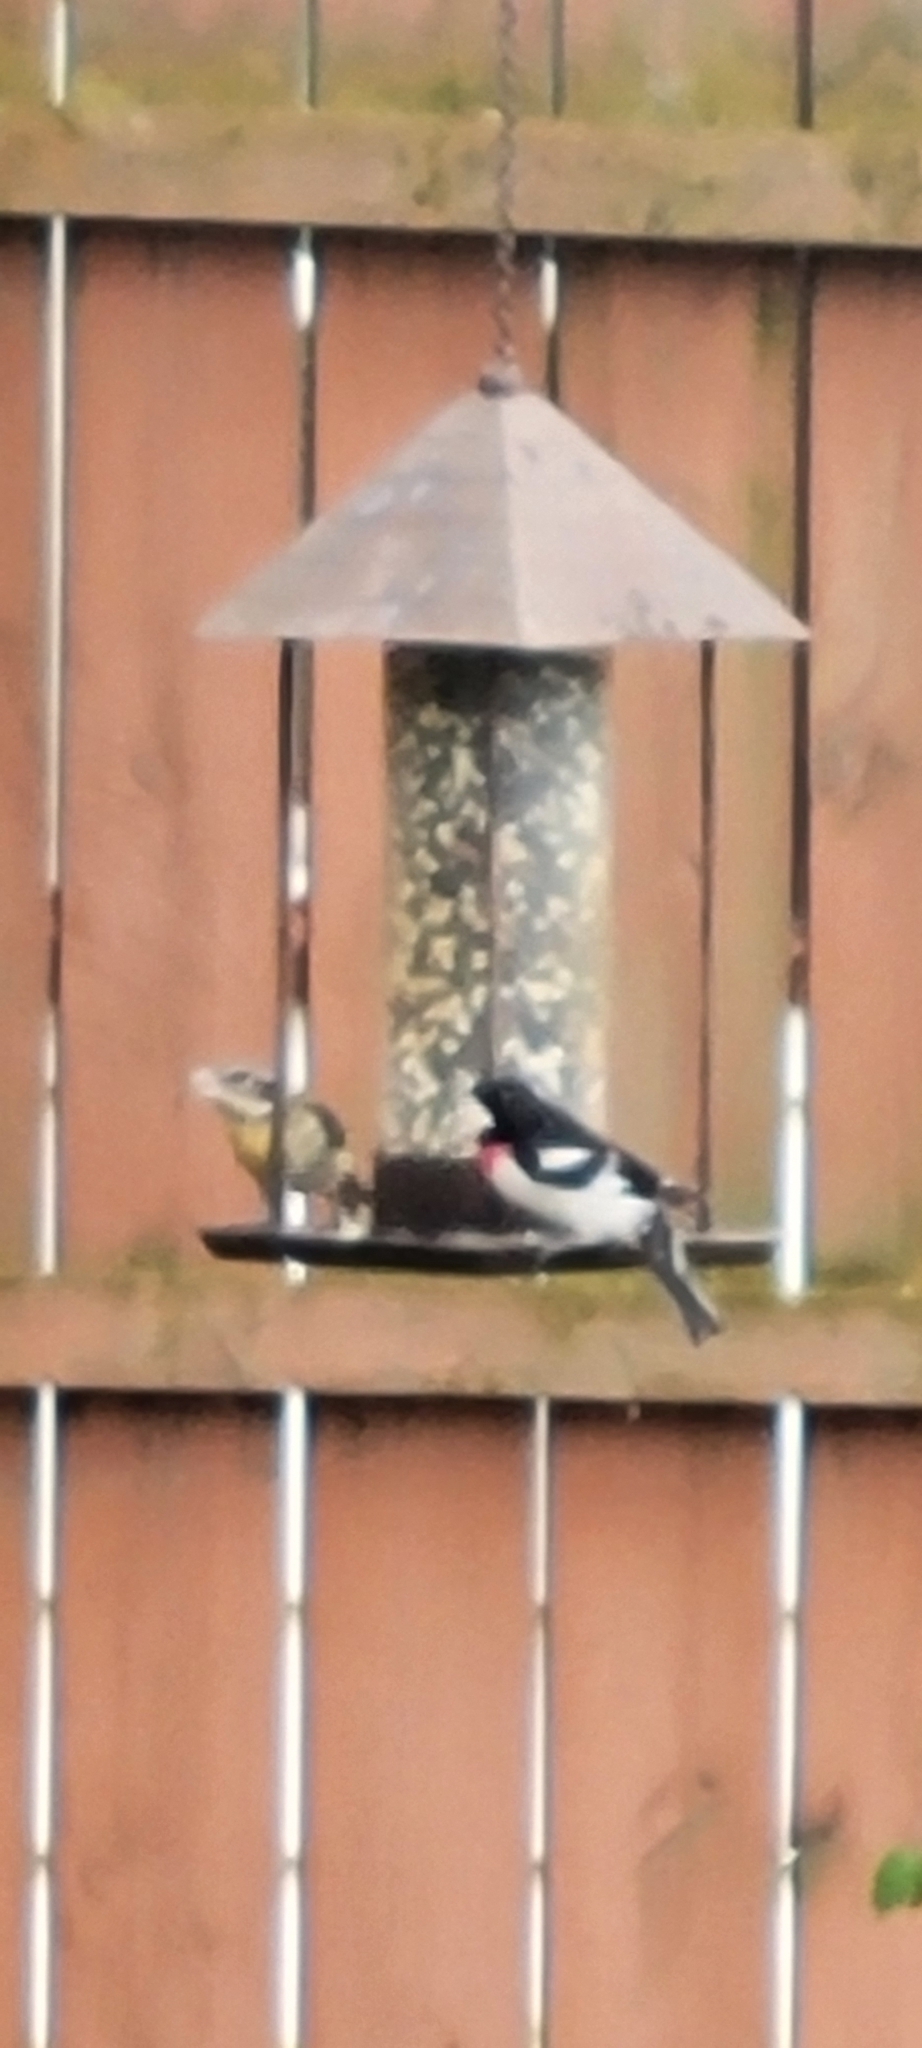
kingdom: Animalia
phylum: Chordata
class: Aves
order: Passeriformes
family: Cardinalidae
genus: Pheucticus
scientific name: Pheucticus ludovicianus
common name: Rose-breasted grosbeak
